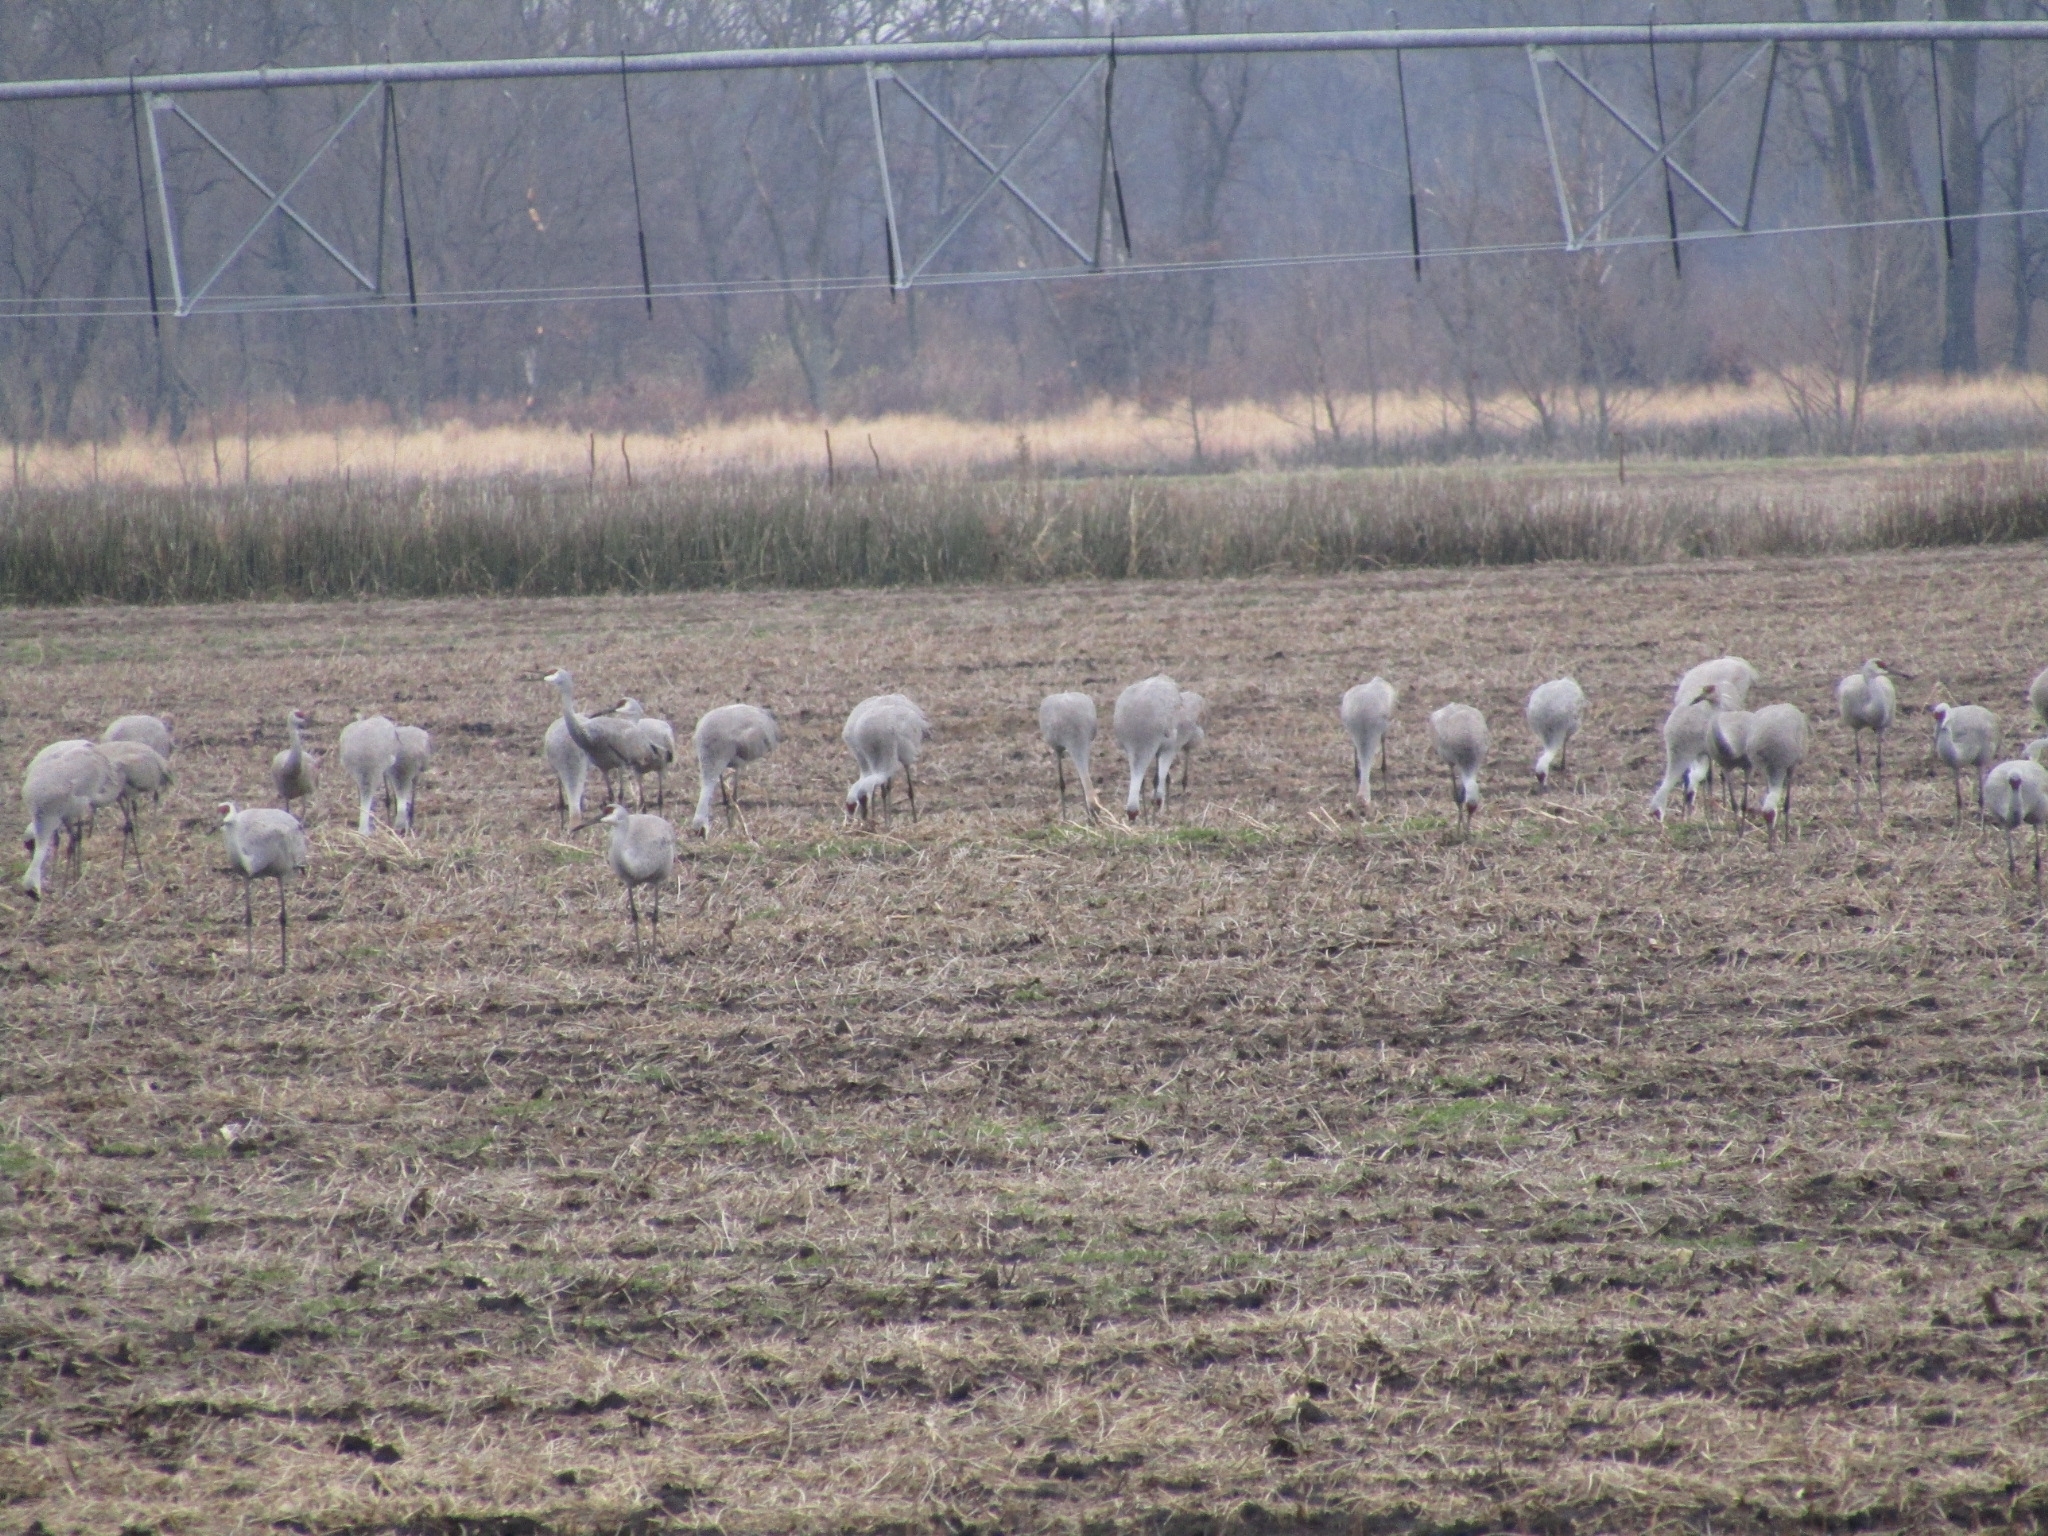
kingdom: Animalia
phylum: Chordata
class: Aves
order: Gruiformes
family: Gruidae
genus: Grus
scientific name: Grus canadensis
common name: Sandhill crane
